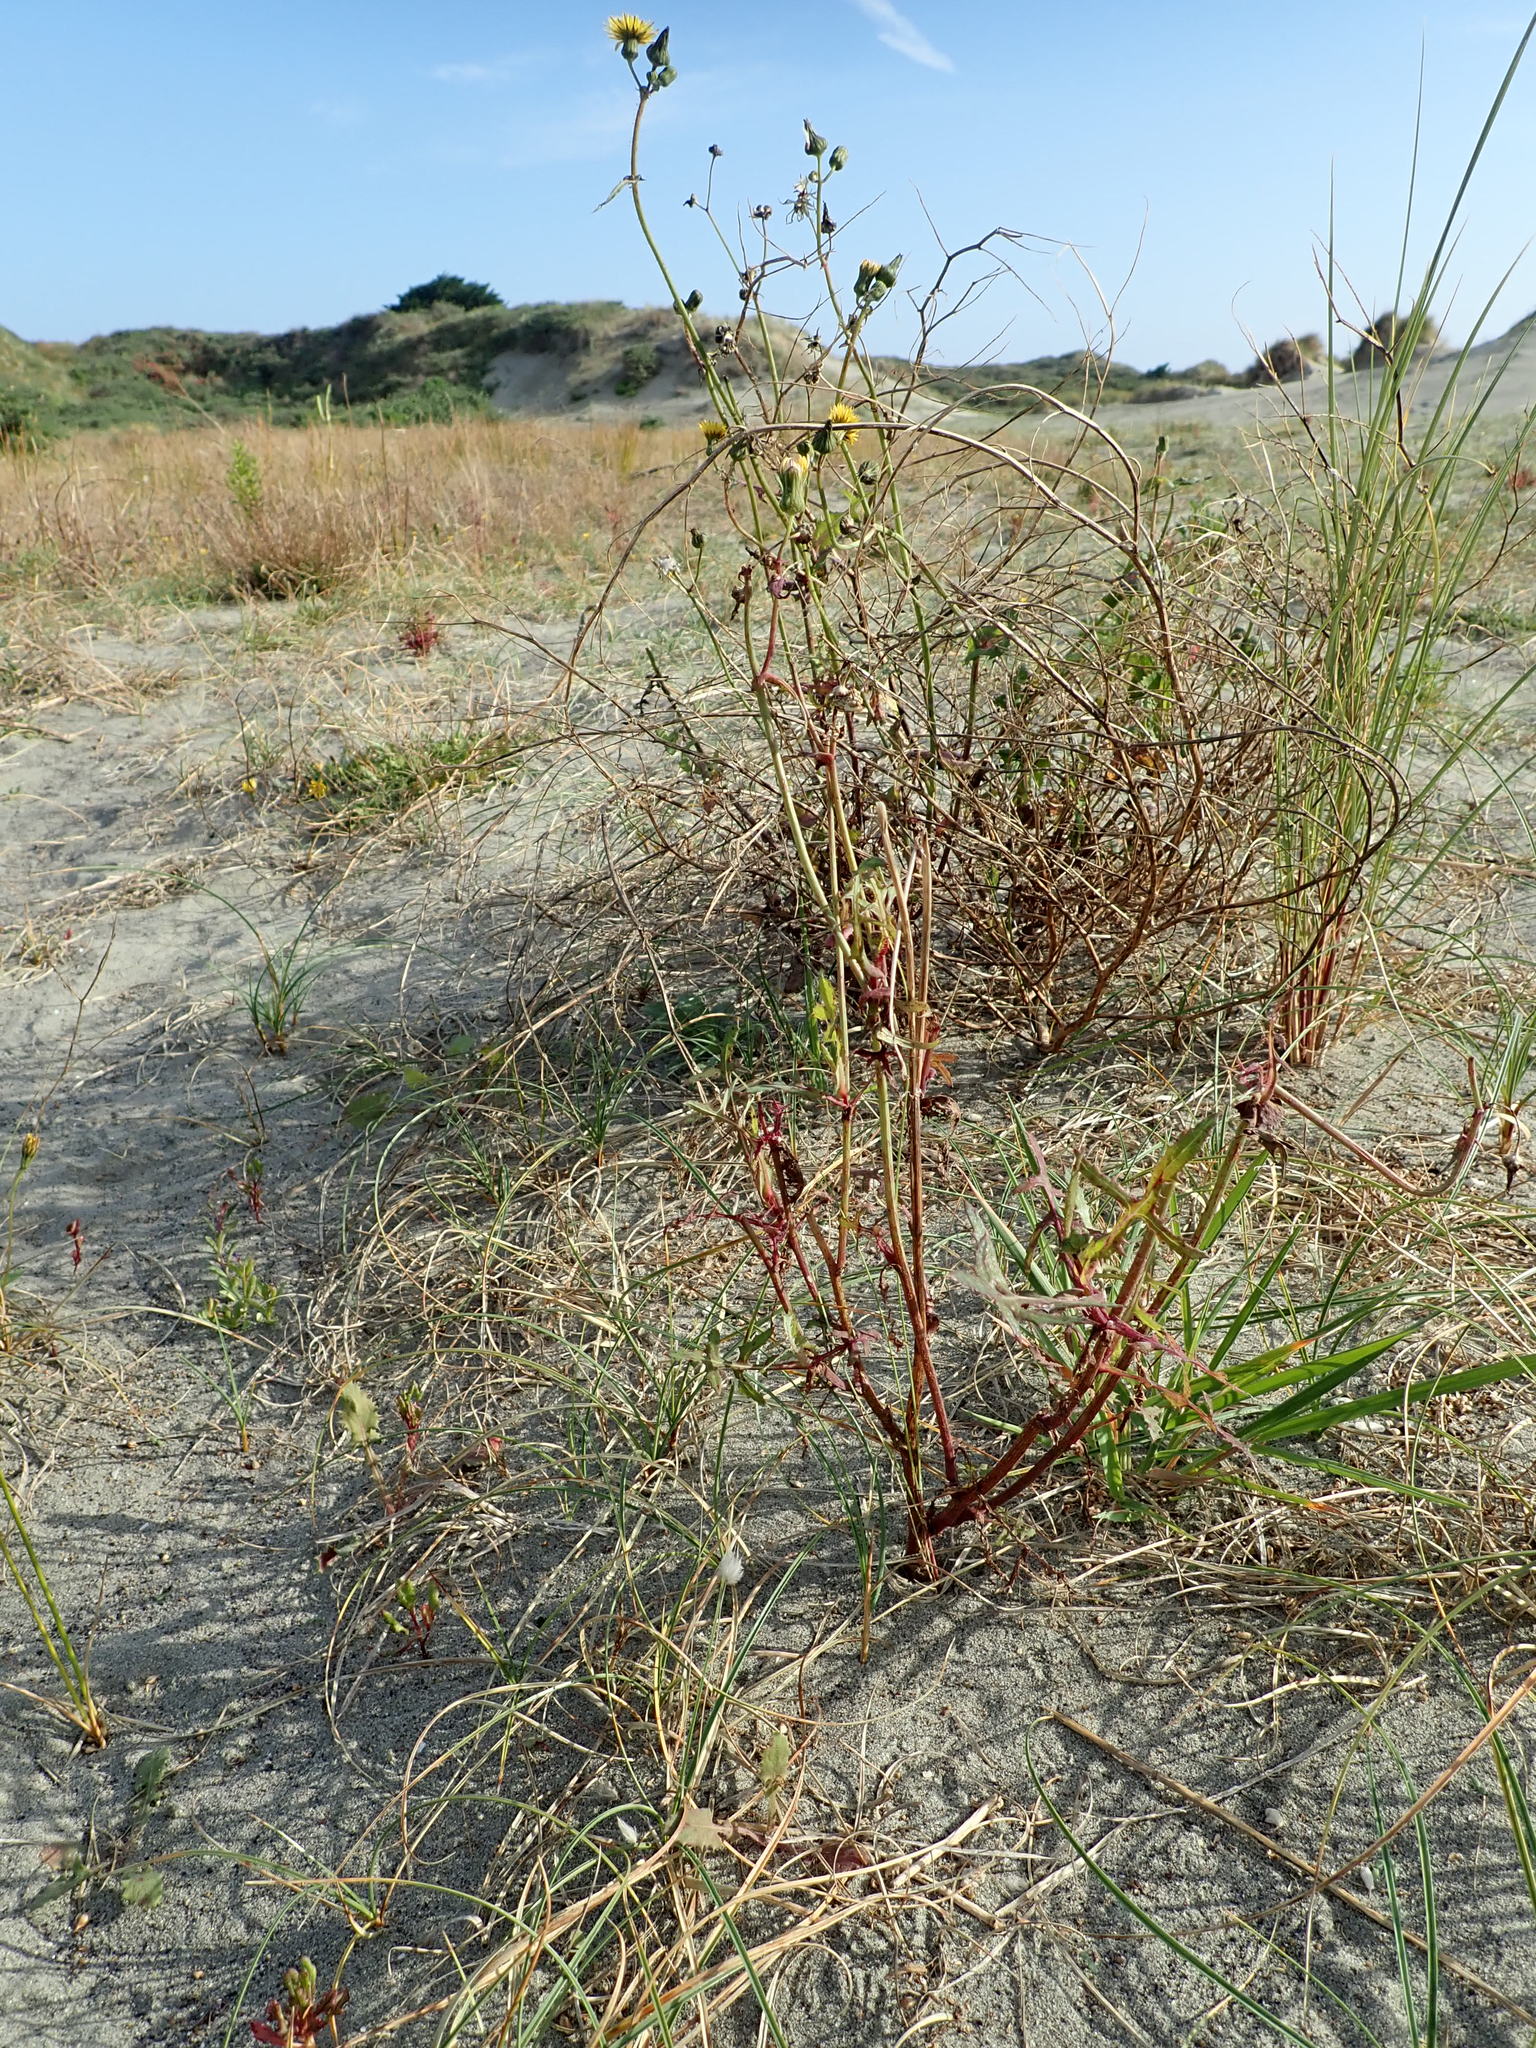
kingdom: Plantae
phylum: Tracheophyta
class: Magnoliopsida
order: Asterales
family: Asteraceae
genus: Sonchus
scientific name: Sonchus oleraceus
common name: Common sowthistle
